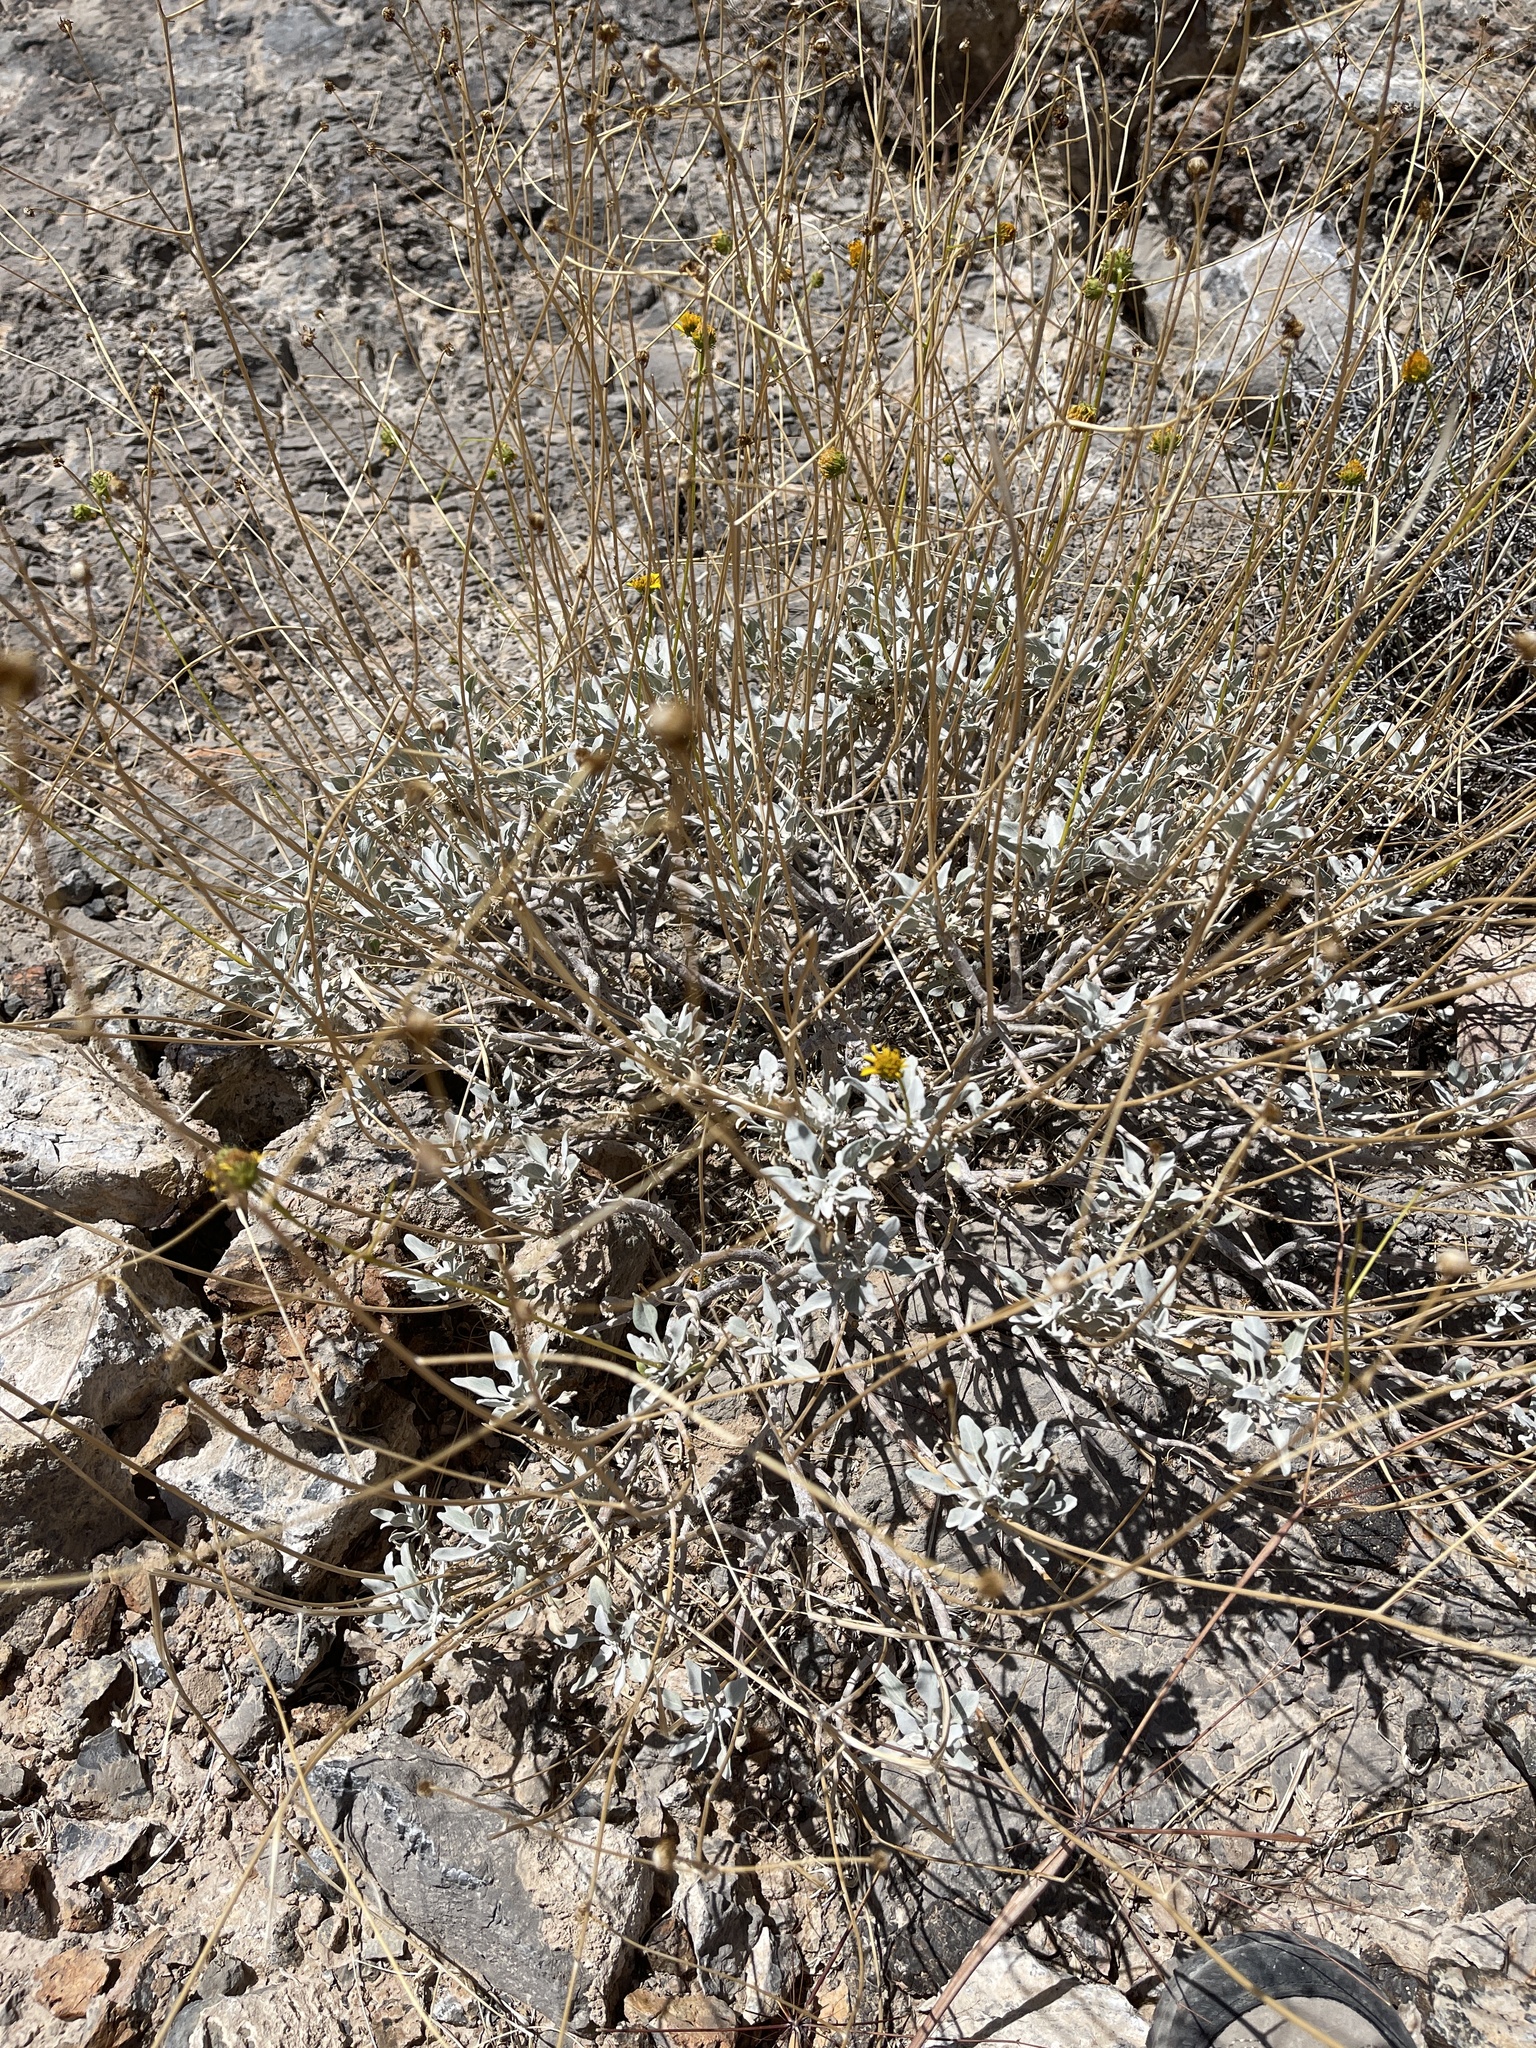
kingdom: Plantae
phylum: Tracheophyta
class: Magnoliopsida
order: Asterales
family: Asteraceae
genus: Encelia
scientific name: Encelia farinosa
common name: Brittlebush
